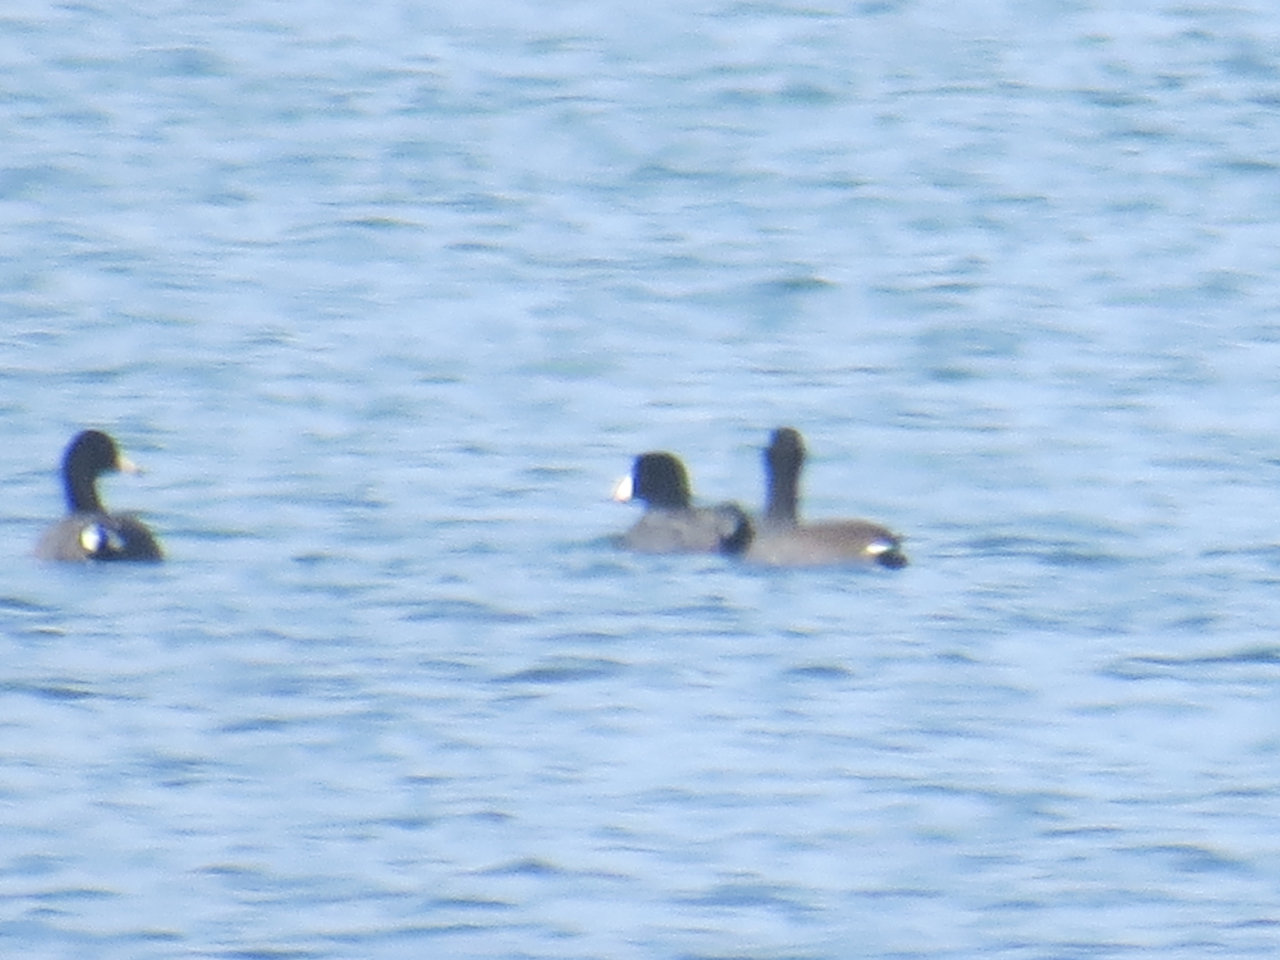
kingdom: Animalia
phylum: Chordata
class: Aves
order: Gruiformes
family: Rallidae
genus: Fulica
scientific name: Fulica americana
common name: American coot
